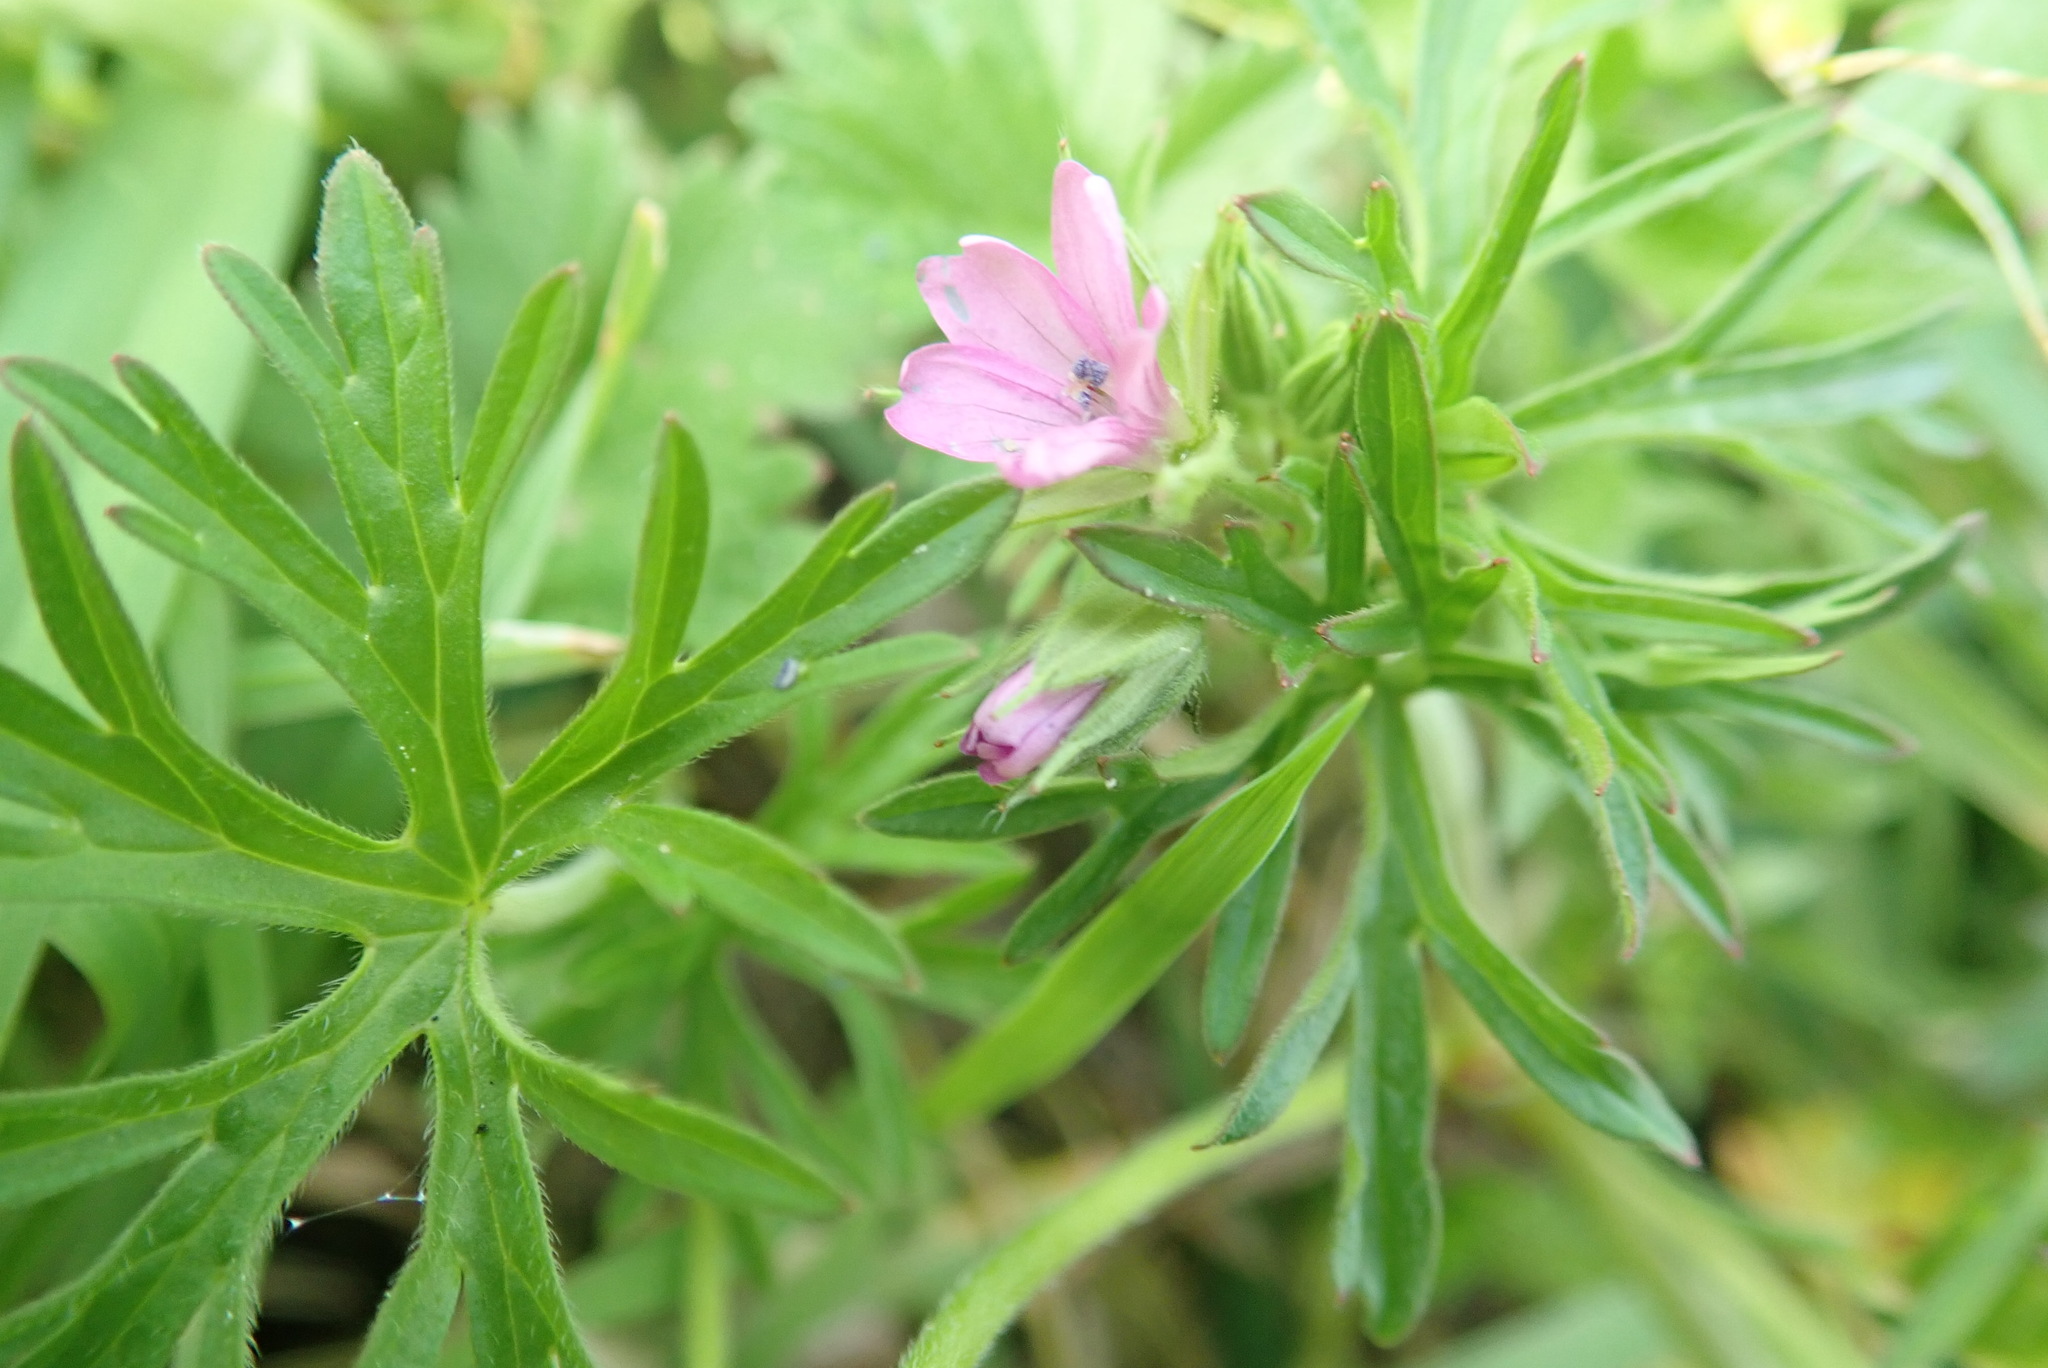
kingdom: Plantae
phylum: Tracheophyta
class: Magnoliopsida
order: Geraniales
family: Geraniaceae
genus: Geranium
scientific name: Geranium dissectum
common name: Cut-leaved crane's-bill
